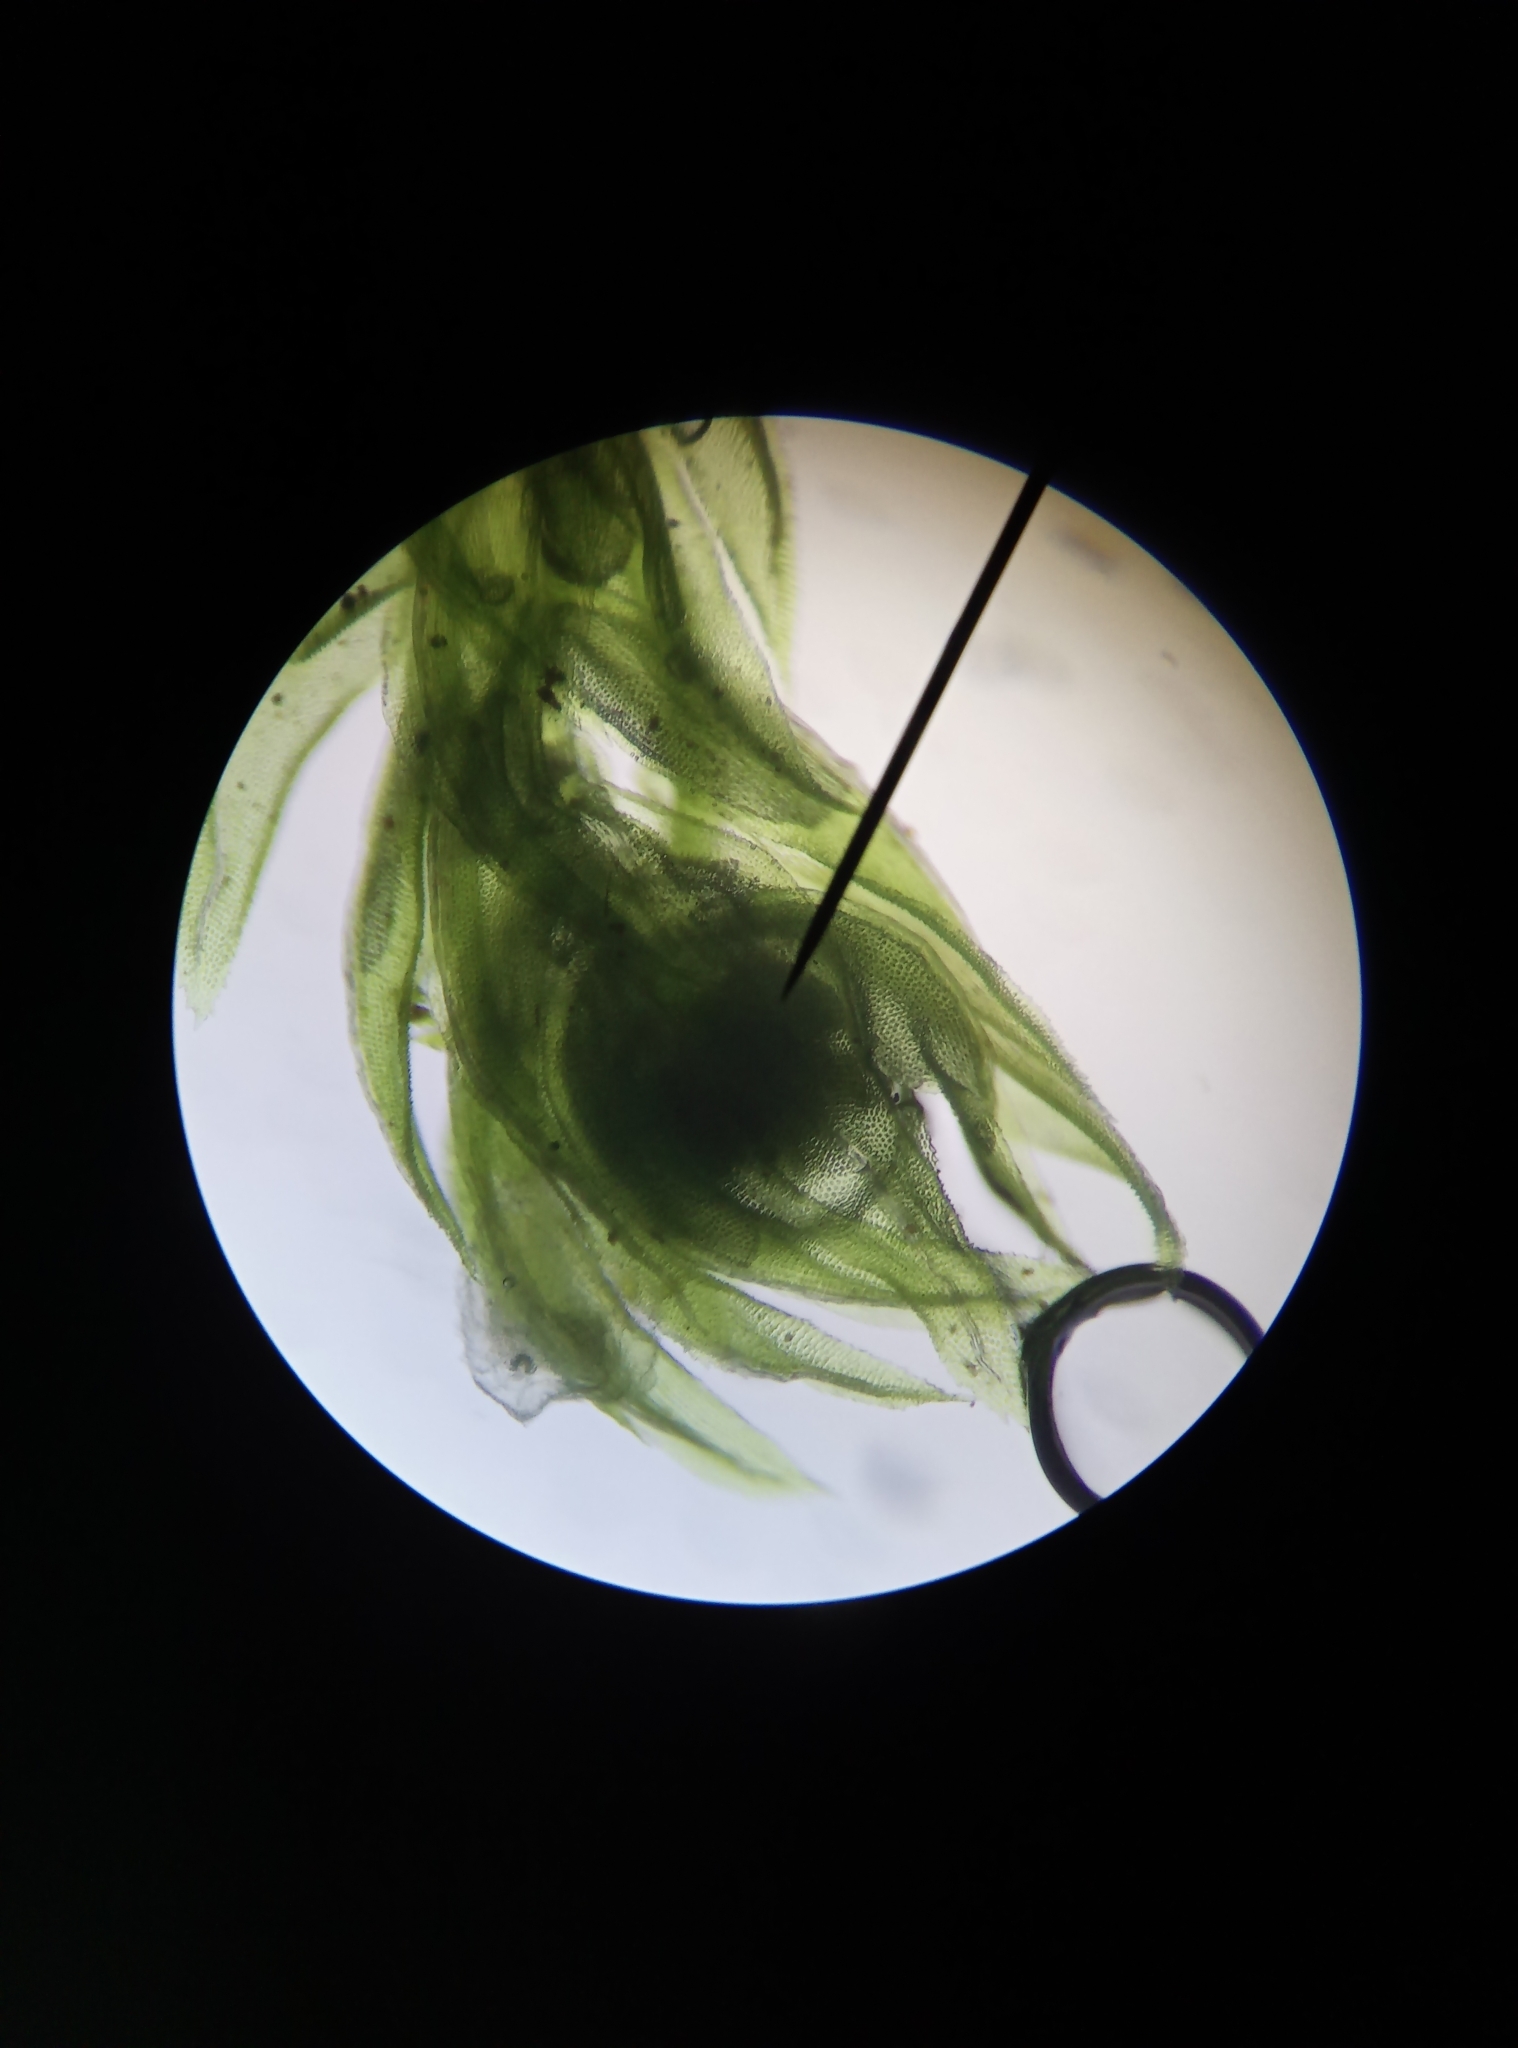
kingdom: Plantae
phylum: Bryophyta
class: Bryopsida
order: Aulacomniales
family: Aulacomniaceae
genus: Aulacomnium
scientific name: Aulacomnium androgynum
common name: Little groove moss
